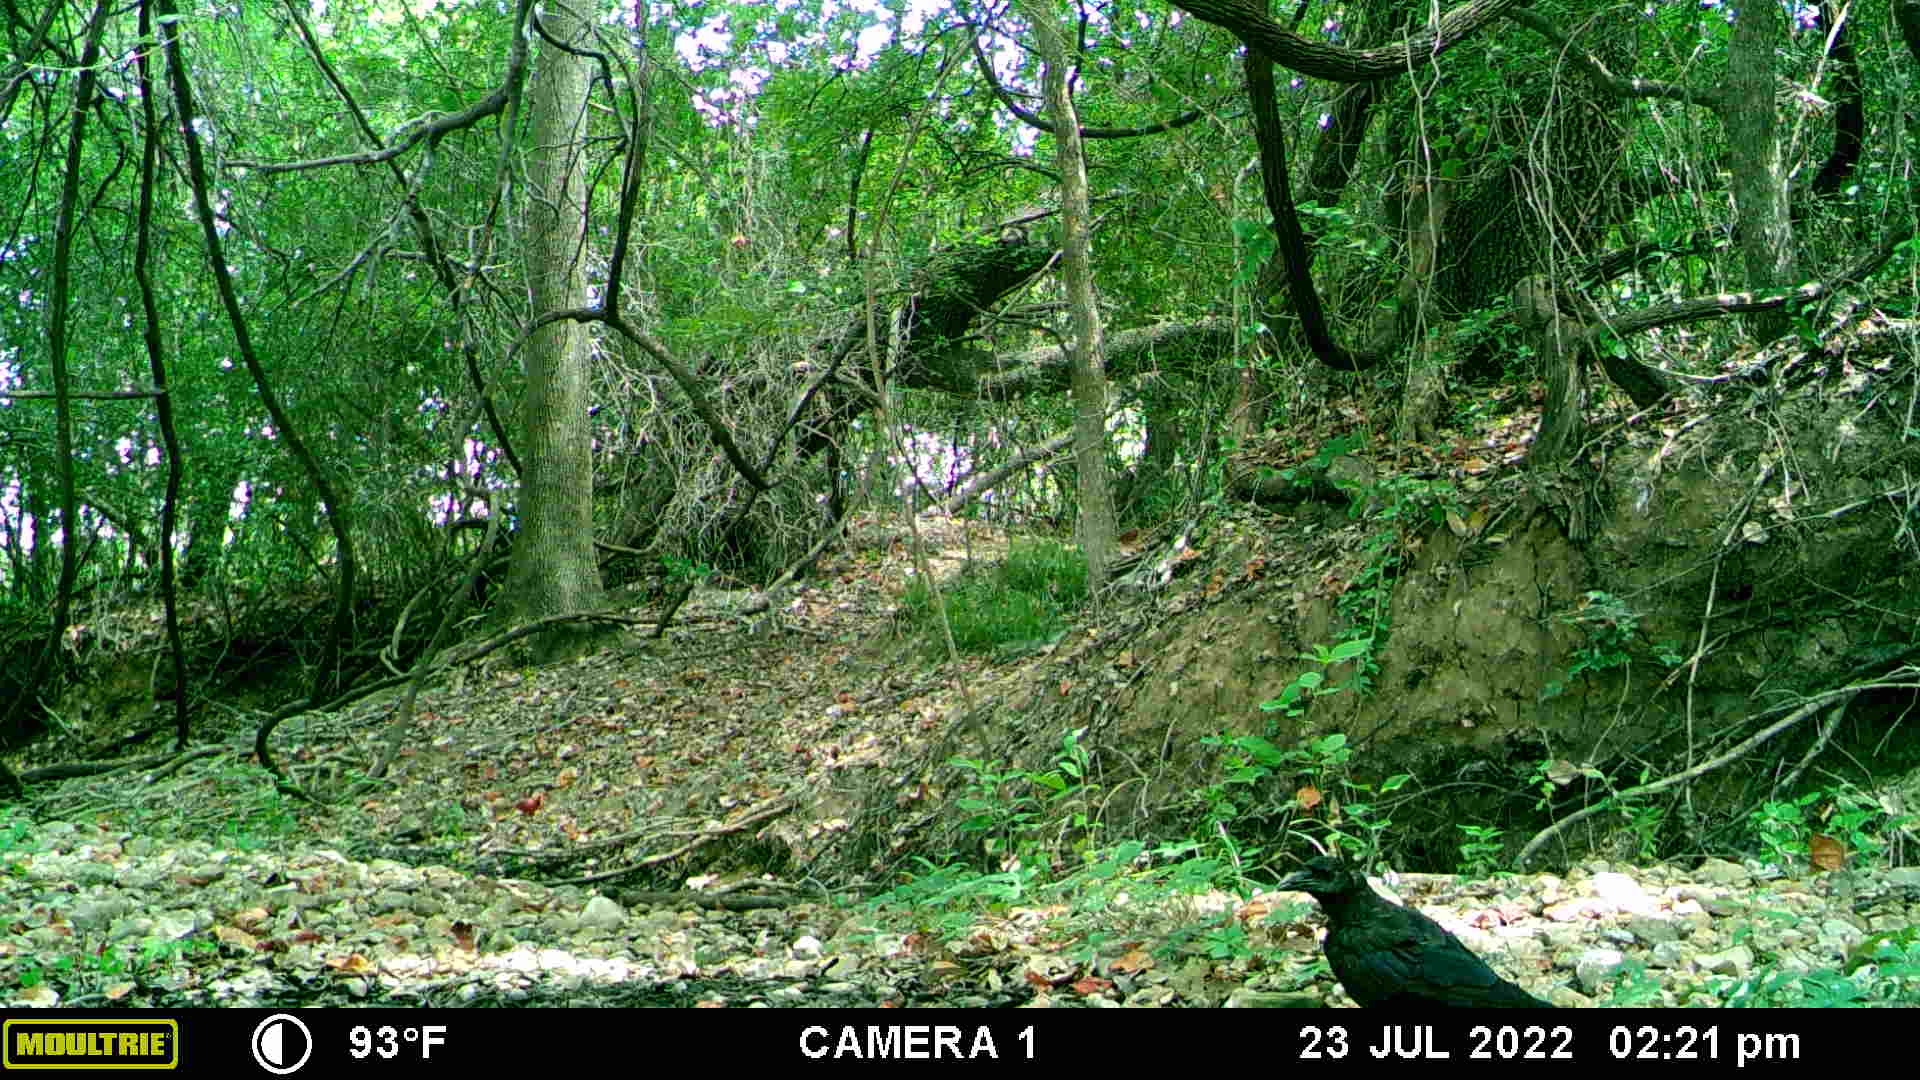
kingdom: Animalia
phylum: Chordata
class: Aves
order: Passeriformes
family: Corvidae
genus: Corvus
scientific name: Corvus brachyrhynchos
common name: American crow
